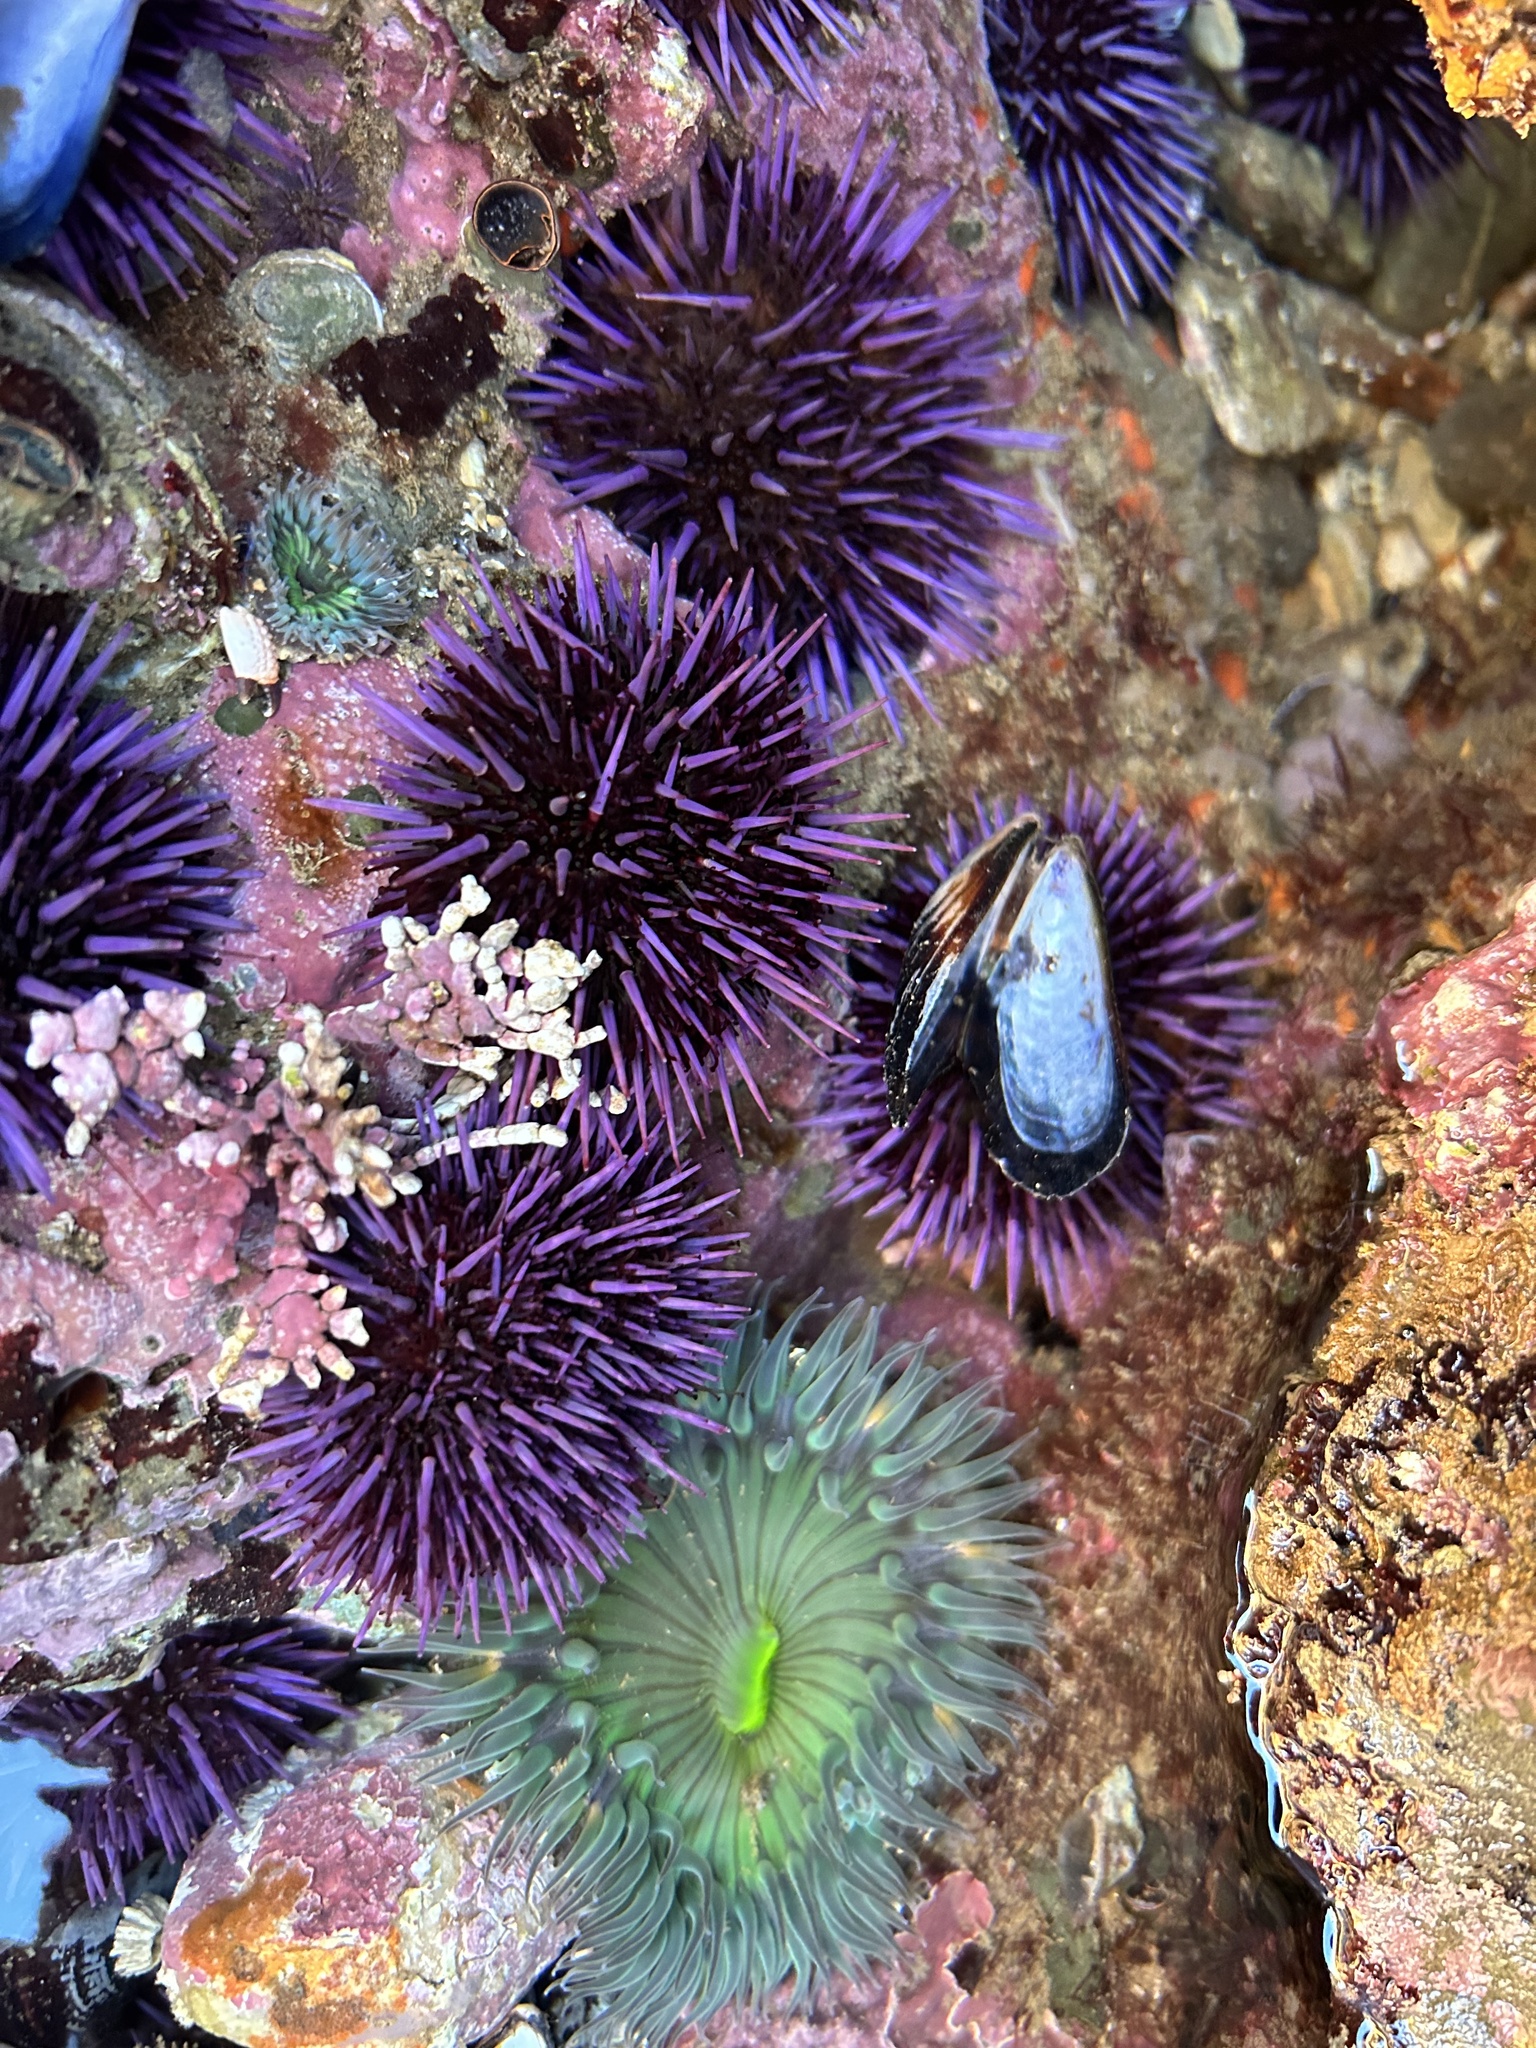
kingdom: Animalia
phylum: Echinodermata
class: Echinoidea
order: Camarodonta
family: Strongylocentrotidae
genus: Strongylocentrotus
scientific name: Strongylocentrotus purpuratus
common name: Purple sea urchin
